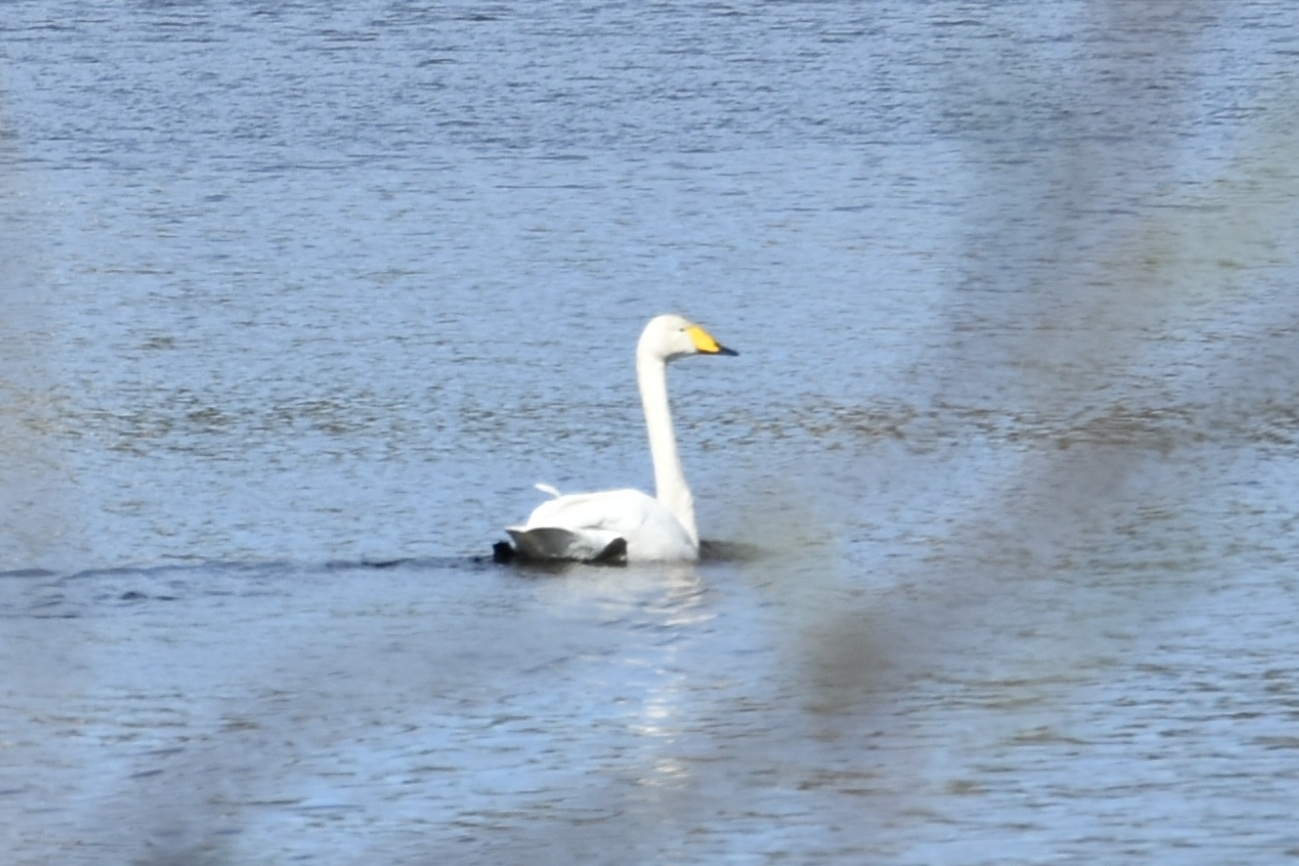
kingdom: Animalia
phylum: Chordata
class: Aves
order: Anseriformes
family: Anatidae
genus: Cygnus
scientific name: Cygnus cygnus
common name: Whooper swan
